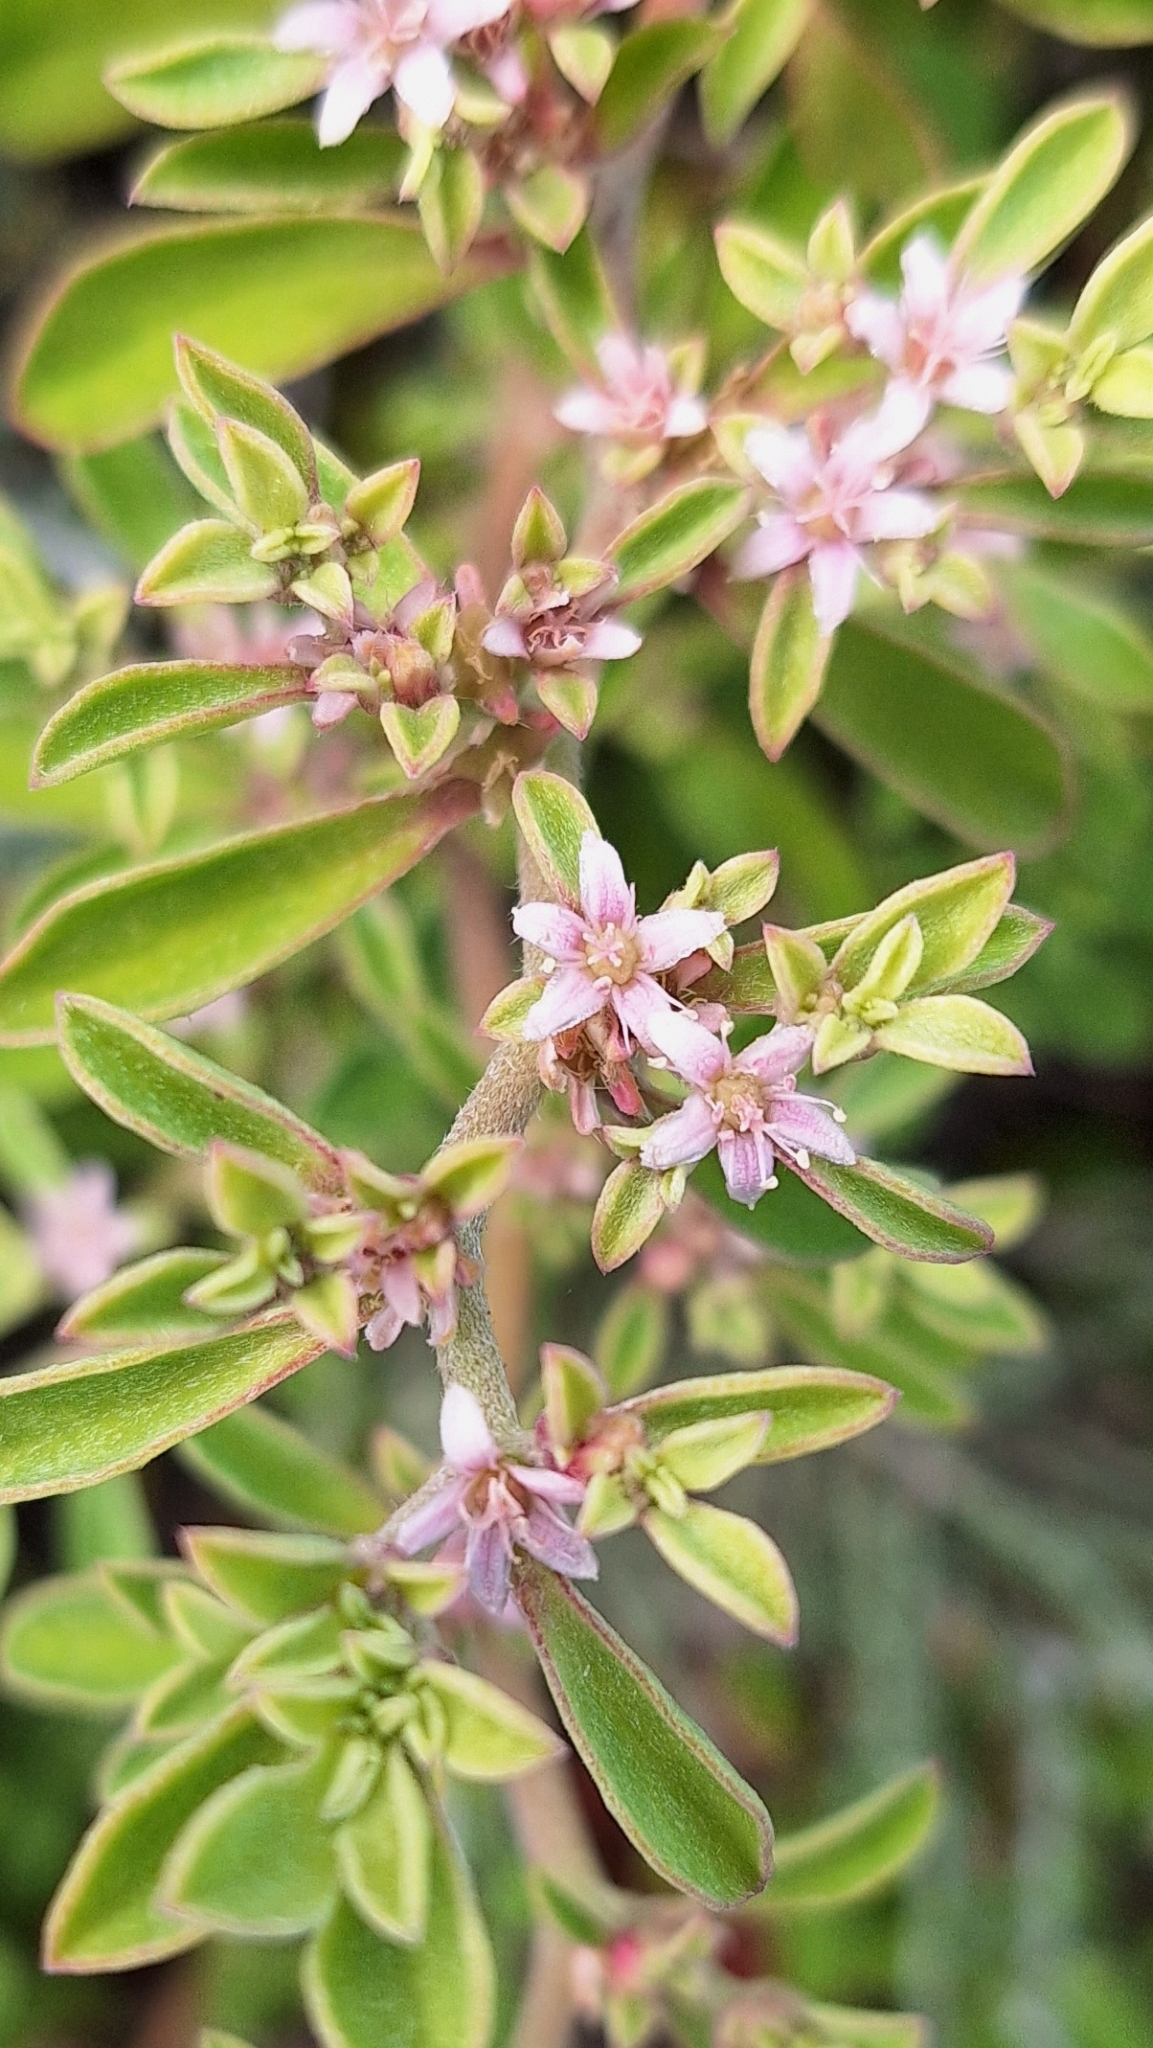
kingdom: Plantae
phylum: Tracheophyta
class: Magnoliopsida
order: Caryophyllales
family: Aizoaceae
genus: Aizoon
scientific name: Aizoon pubescens
